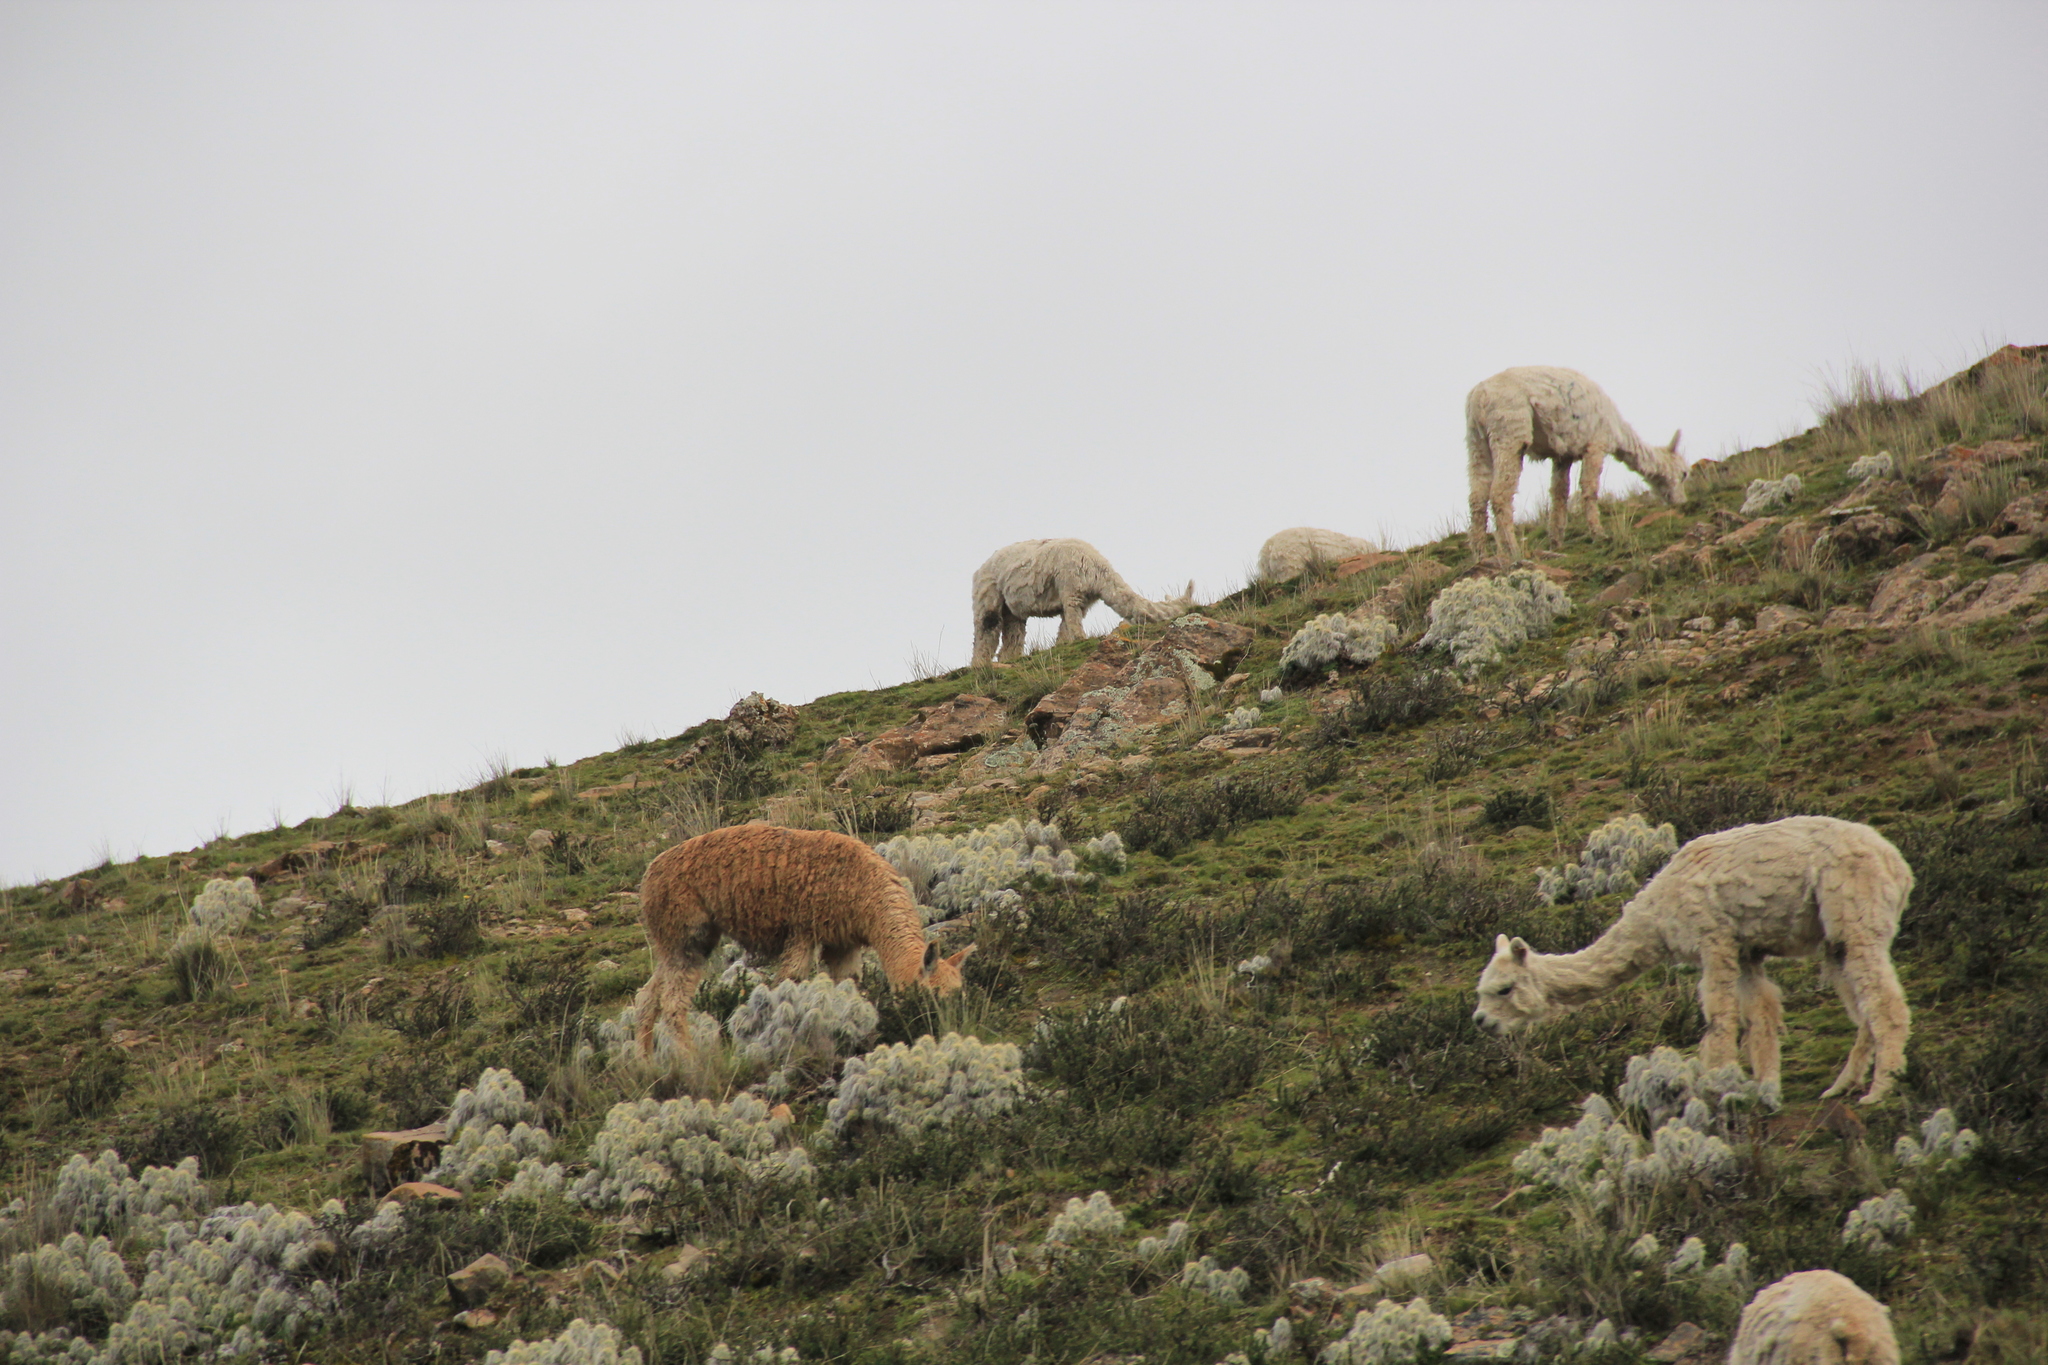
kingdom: Plantae
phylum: Tracheophyta
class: Magnoliopsida
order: Caryophyllales
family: Cactaceae
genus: Austrocylindropuntia
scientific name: Austrocylindropuntia floccosa
